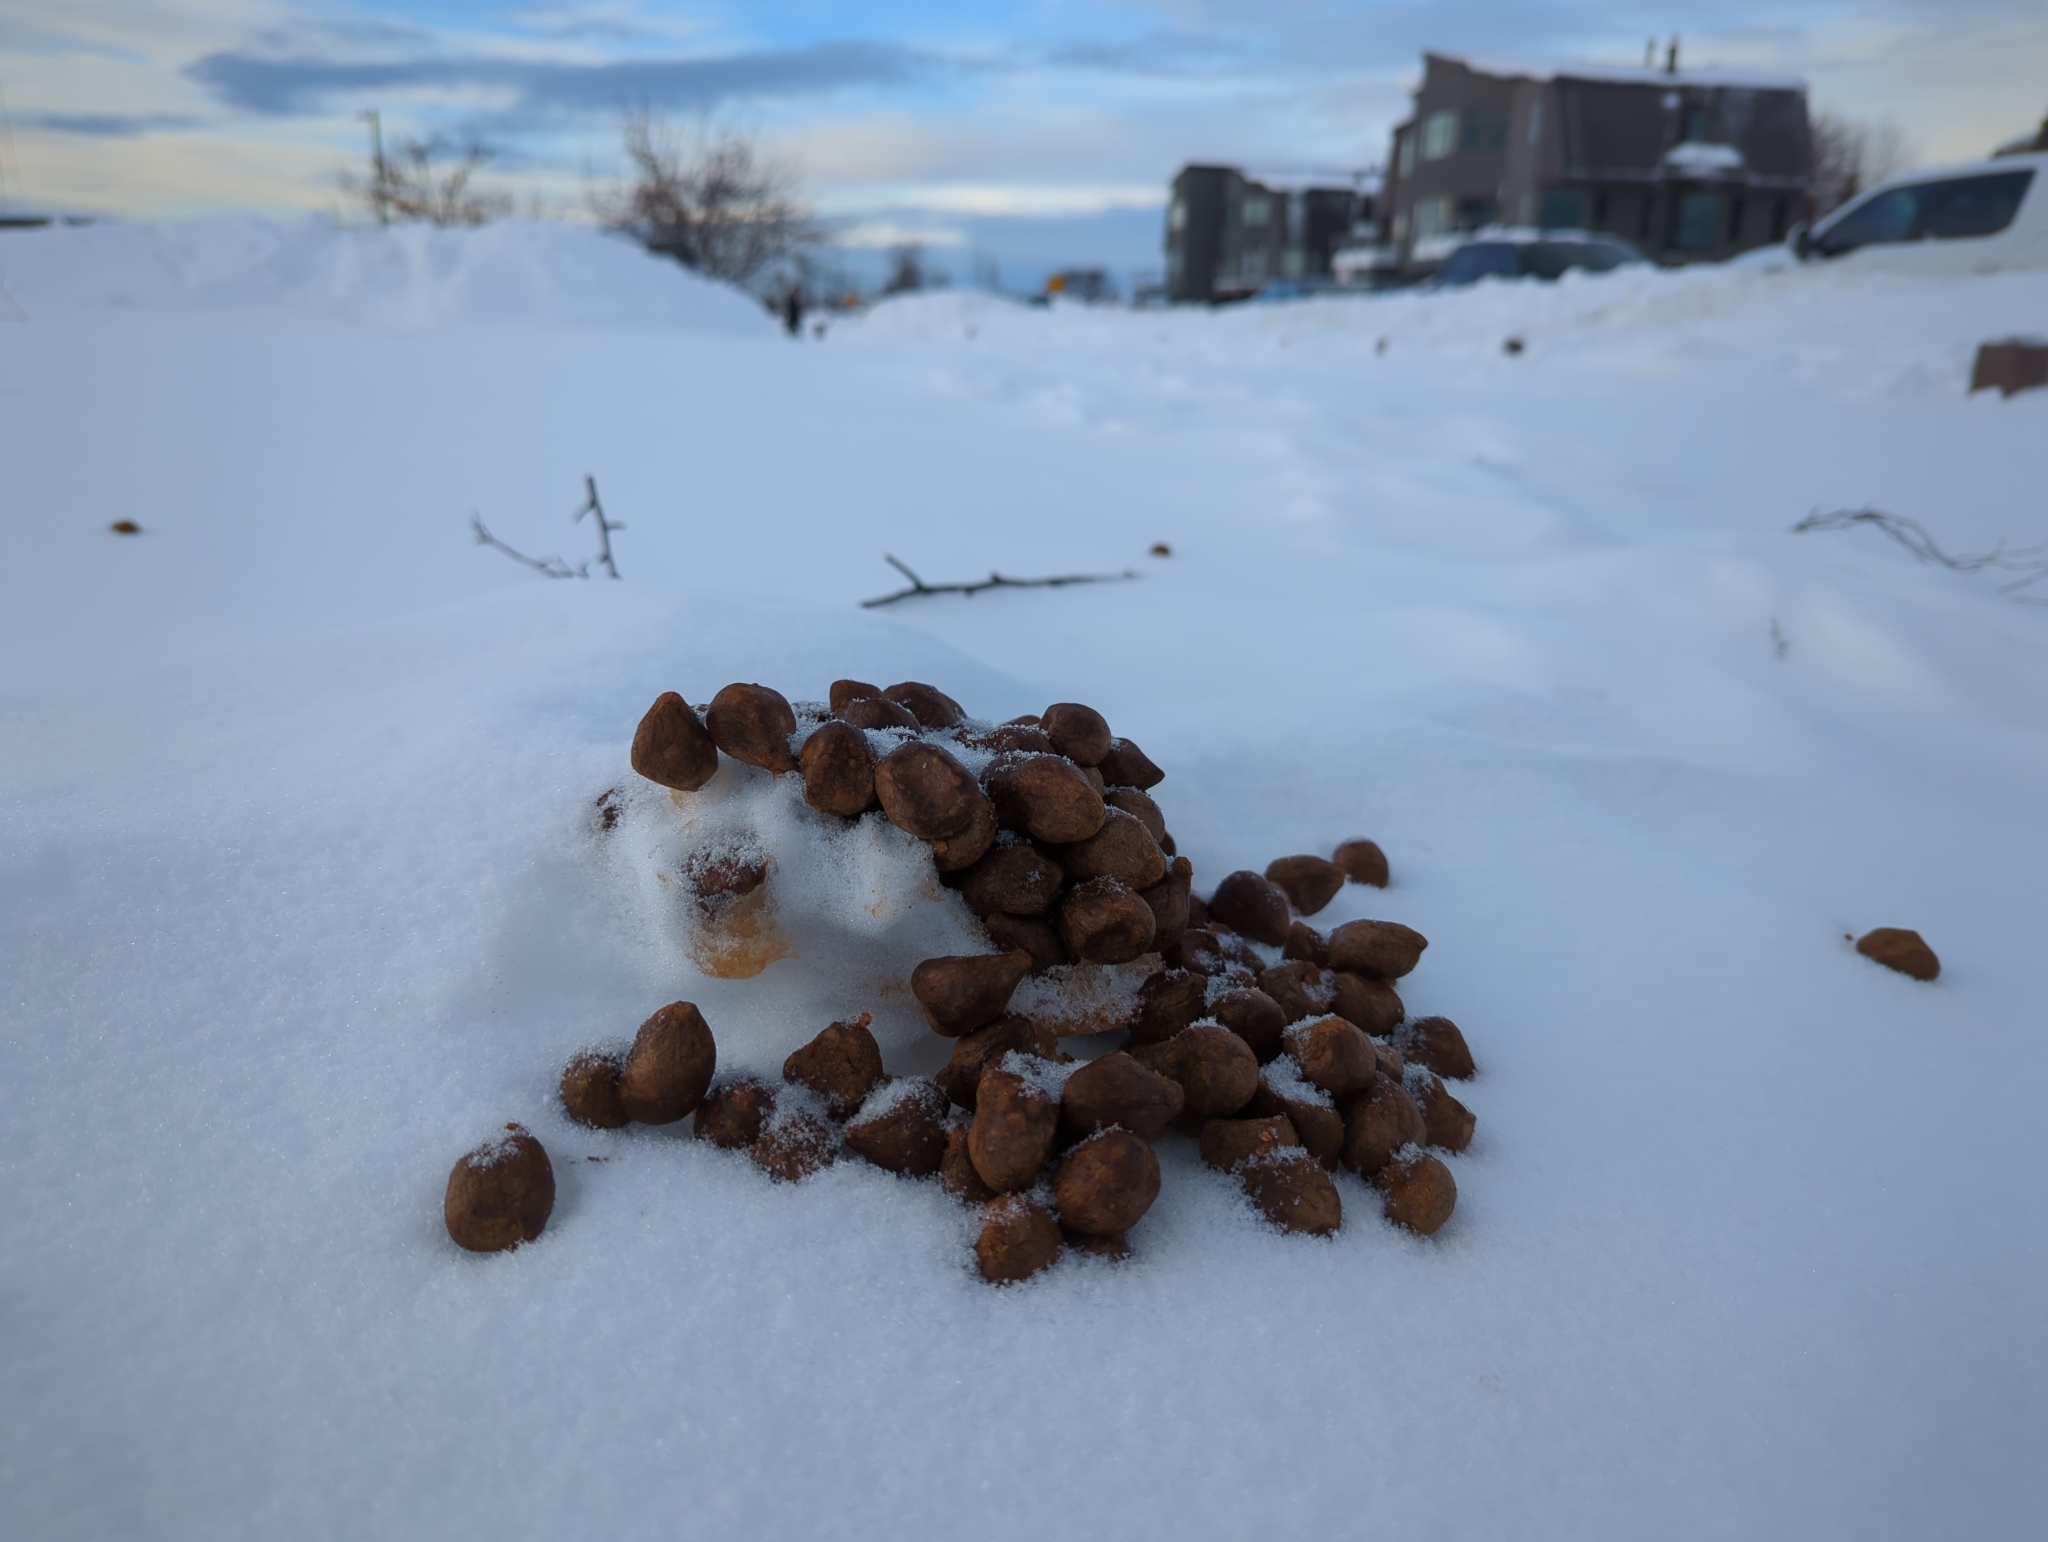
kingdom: Animalia
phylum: Chordata
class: Mammalia
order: Artiodactyla
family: Cervidae
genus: Alces
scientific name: Alces alces
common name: Moose
